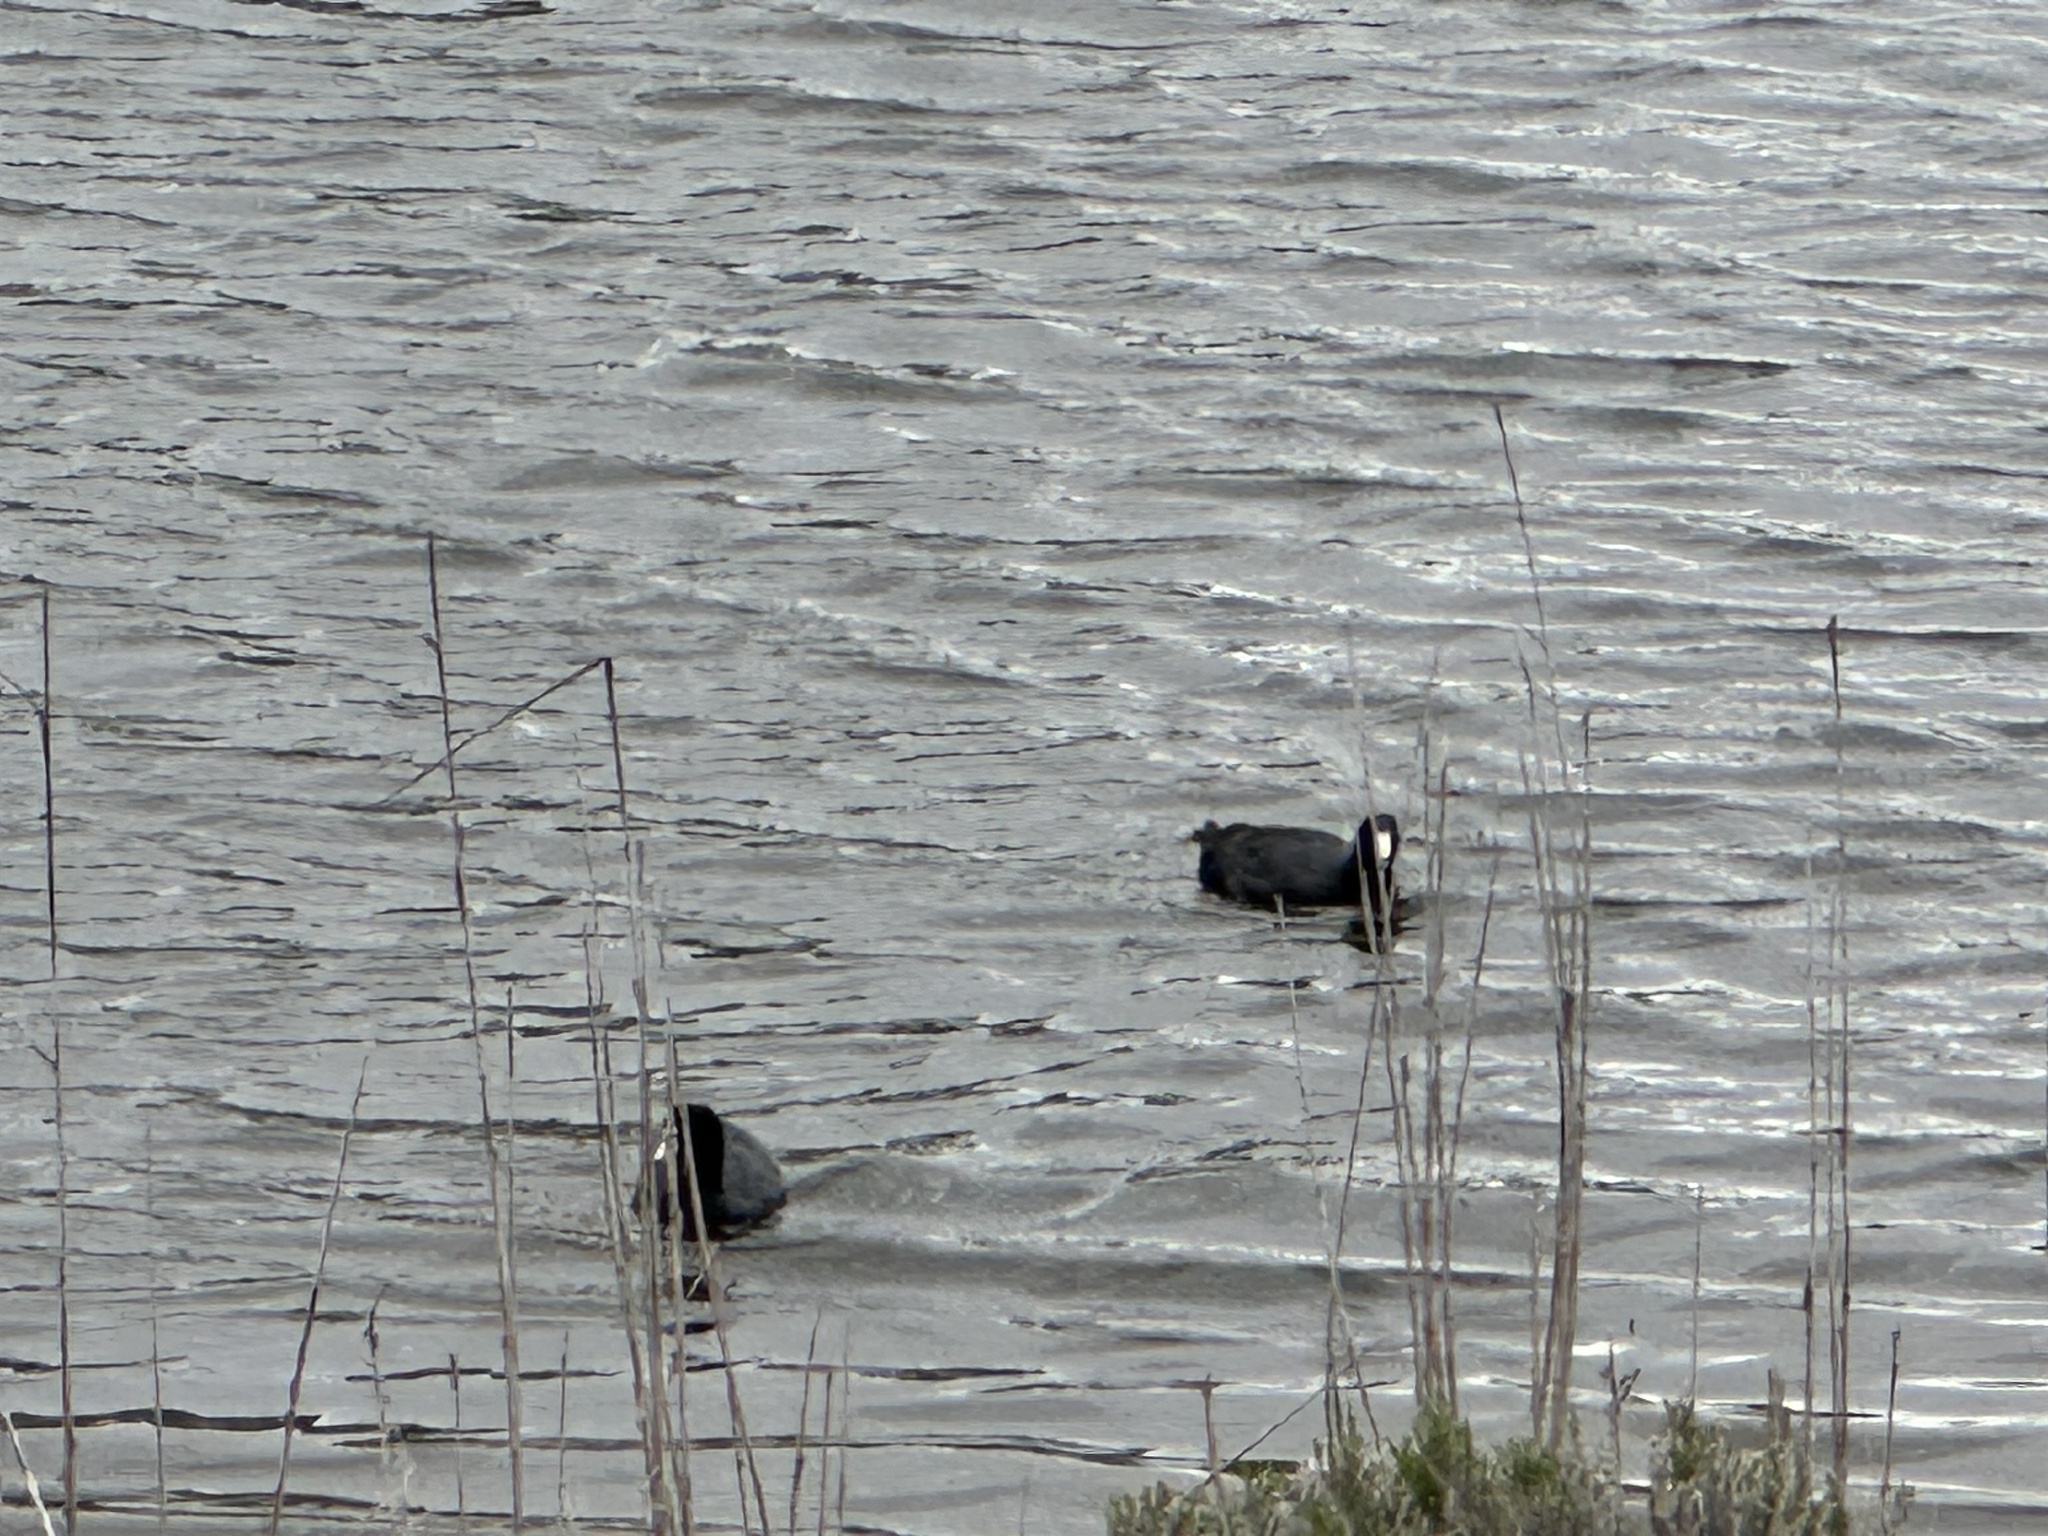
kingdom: Animalia
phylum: Chordata
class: Aves
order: Gruiformes
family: Rallidae
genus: Fulica
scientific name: Fulica americana
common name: American coot
